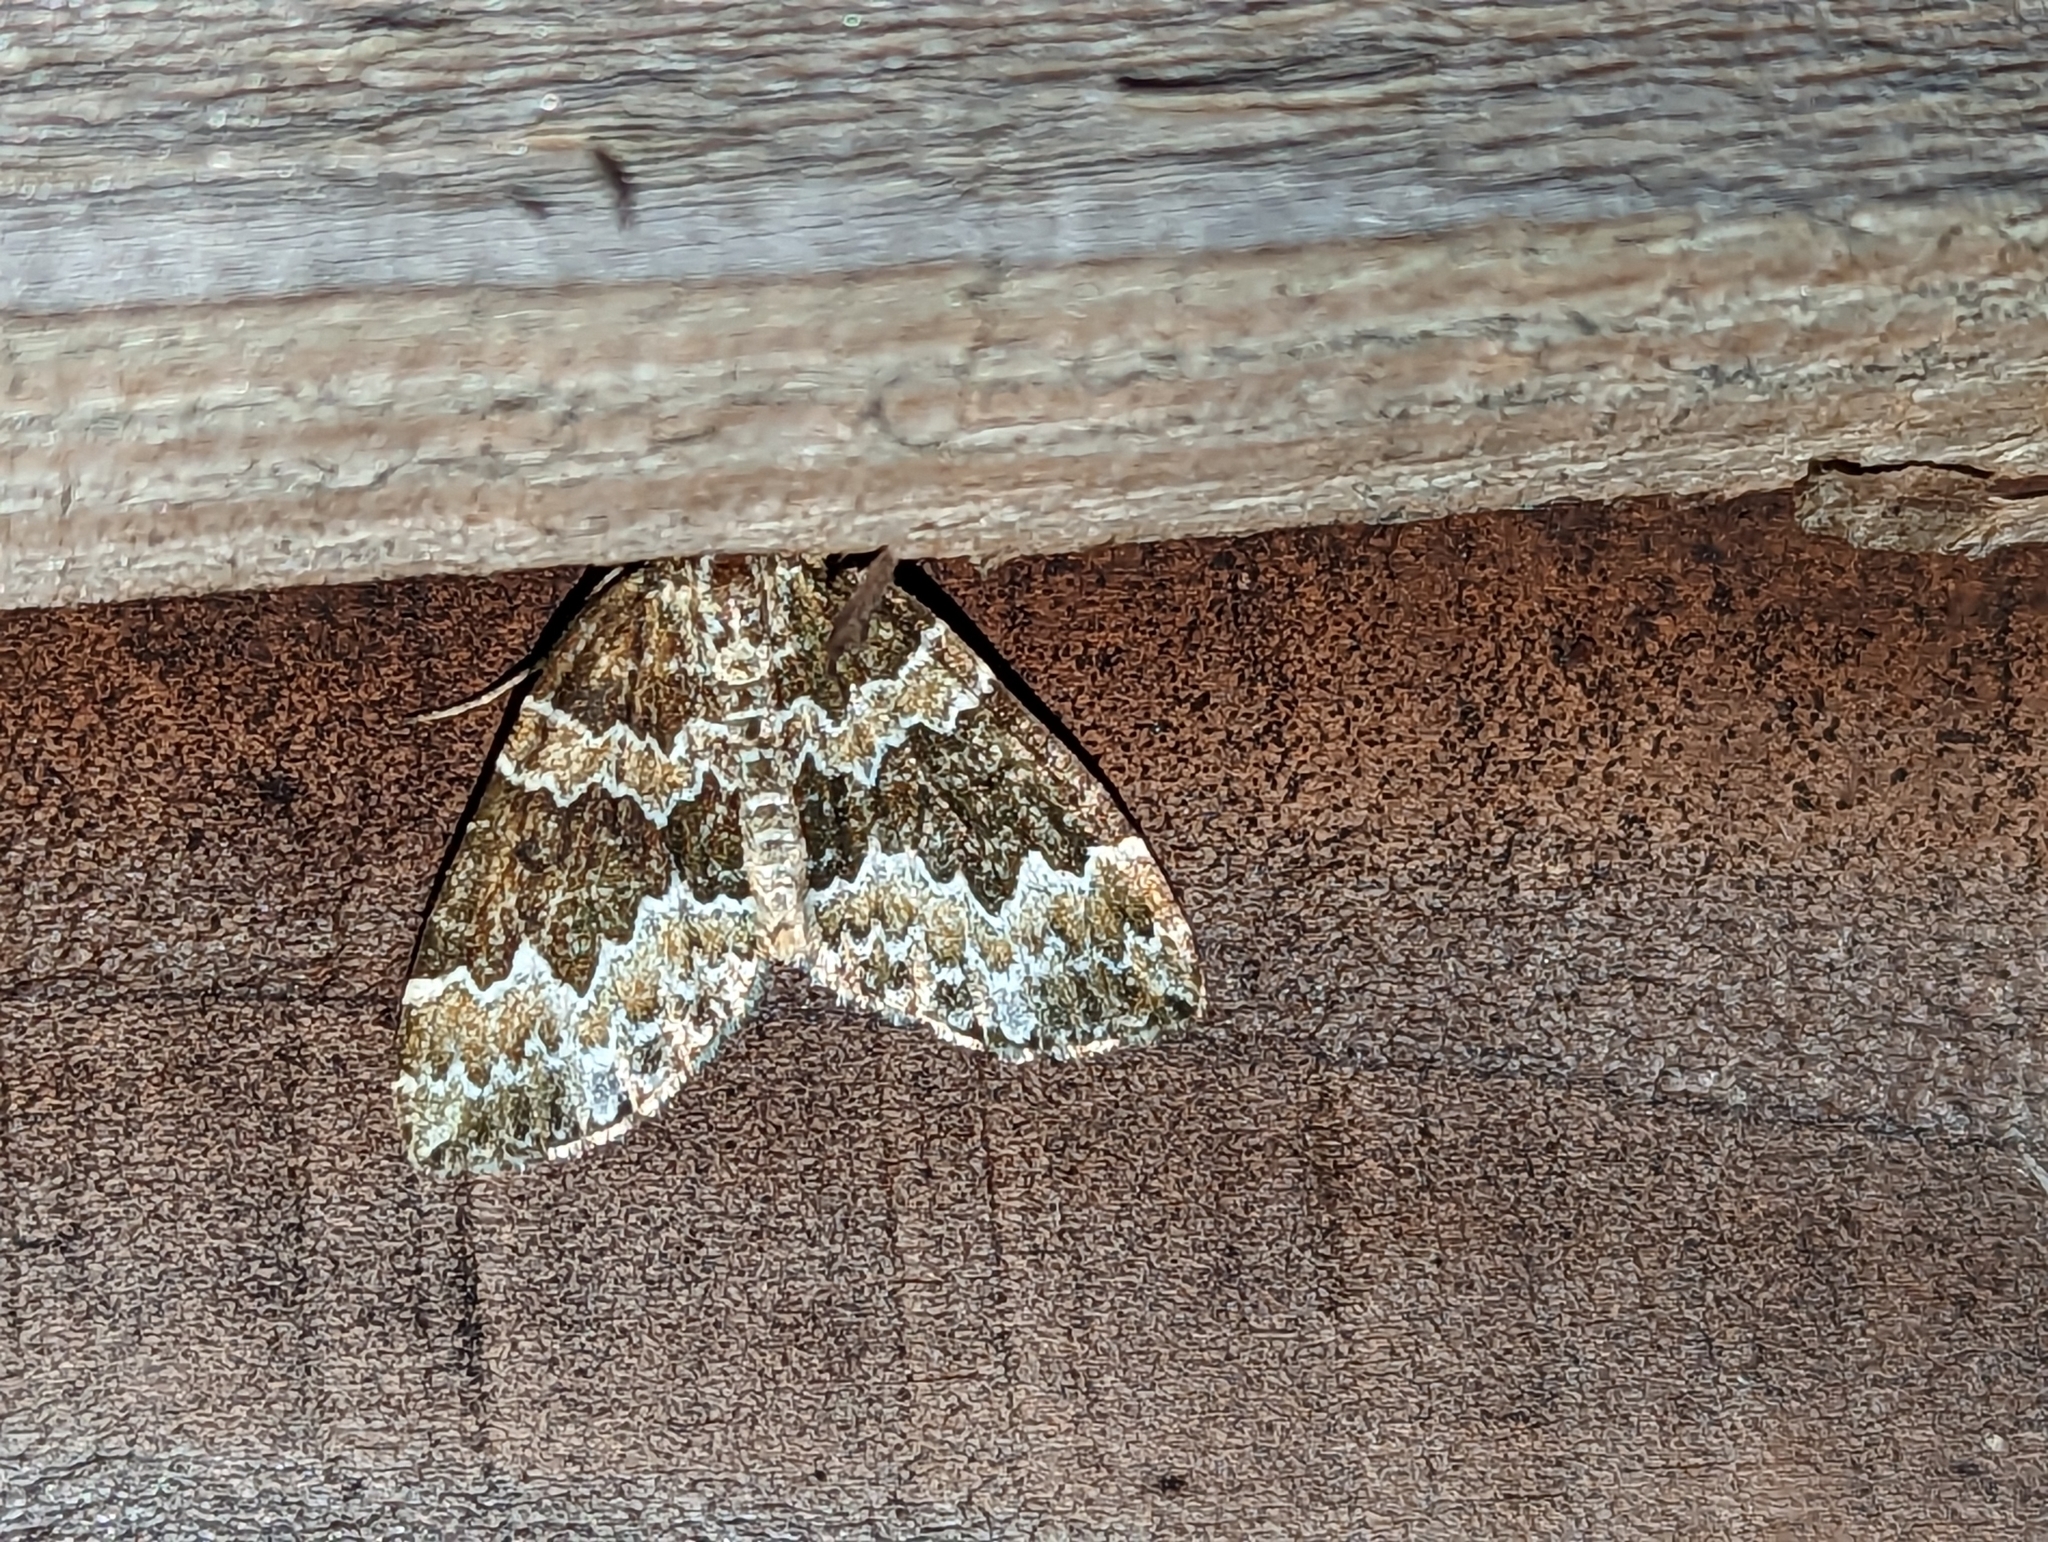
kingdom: Animalia
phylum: Arthropoda
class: Insecta
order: Lepidoptera
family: Geometridae
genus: Electrophaes
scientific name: Electrophaes corylata
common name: Broken-barred carpet
